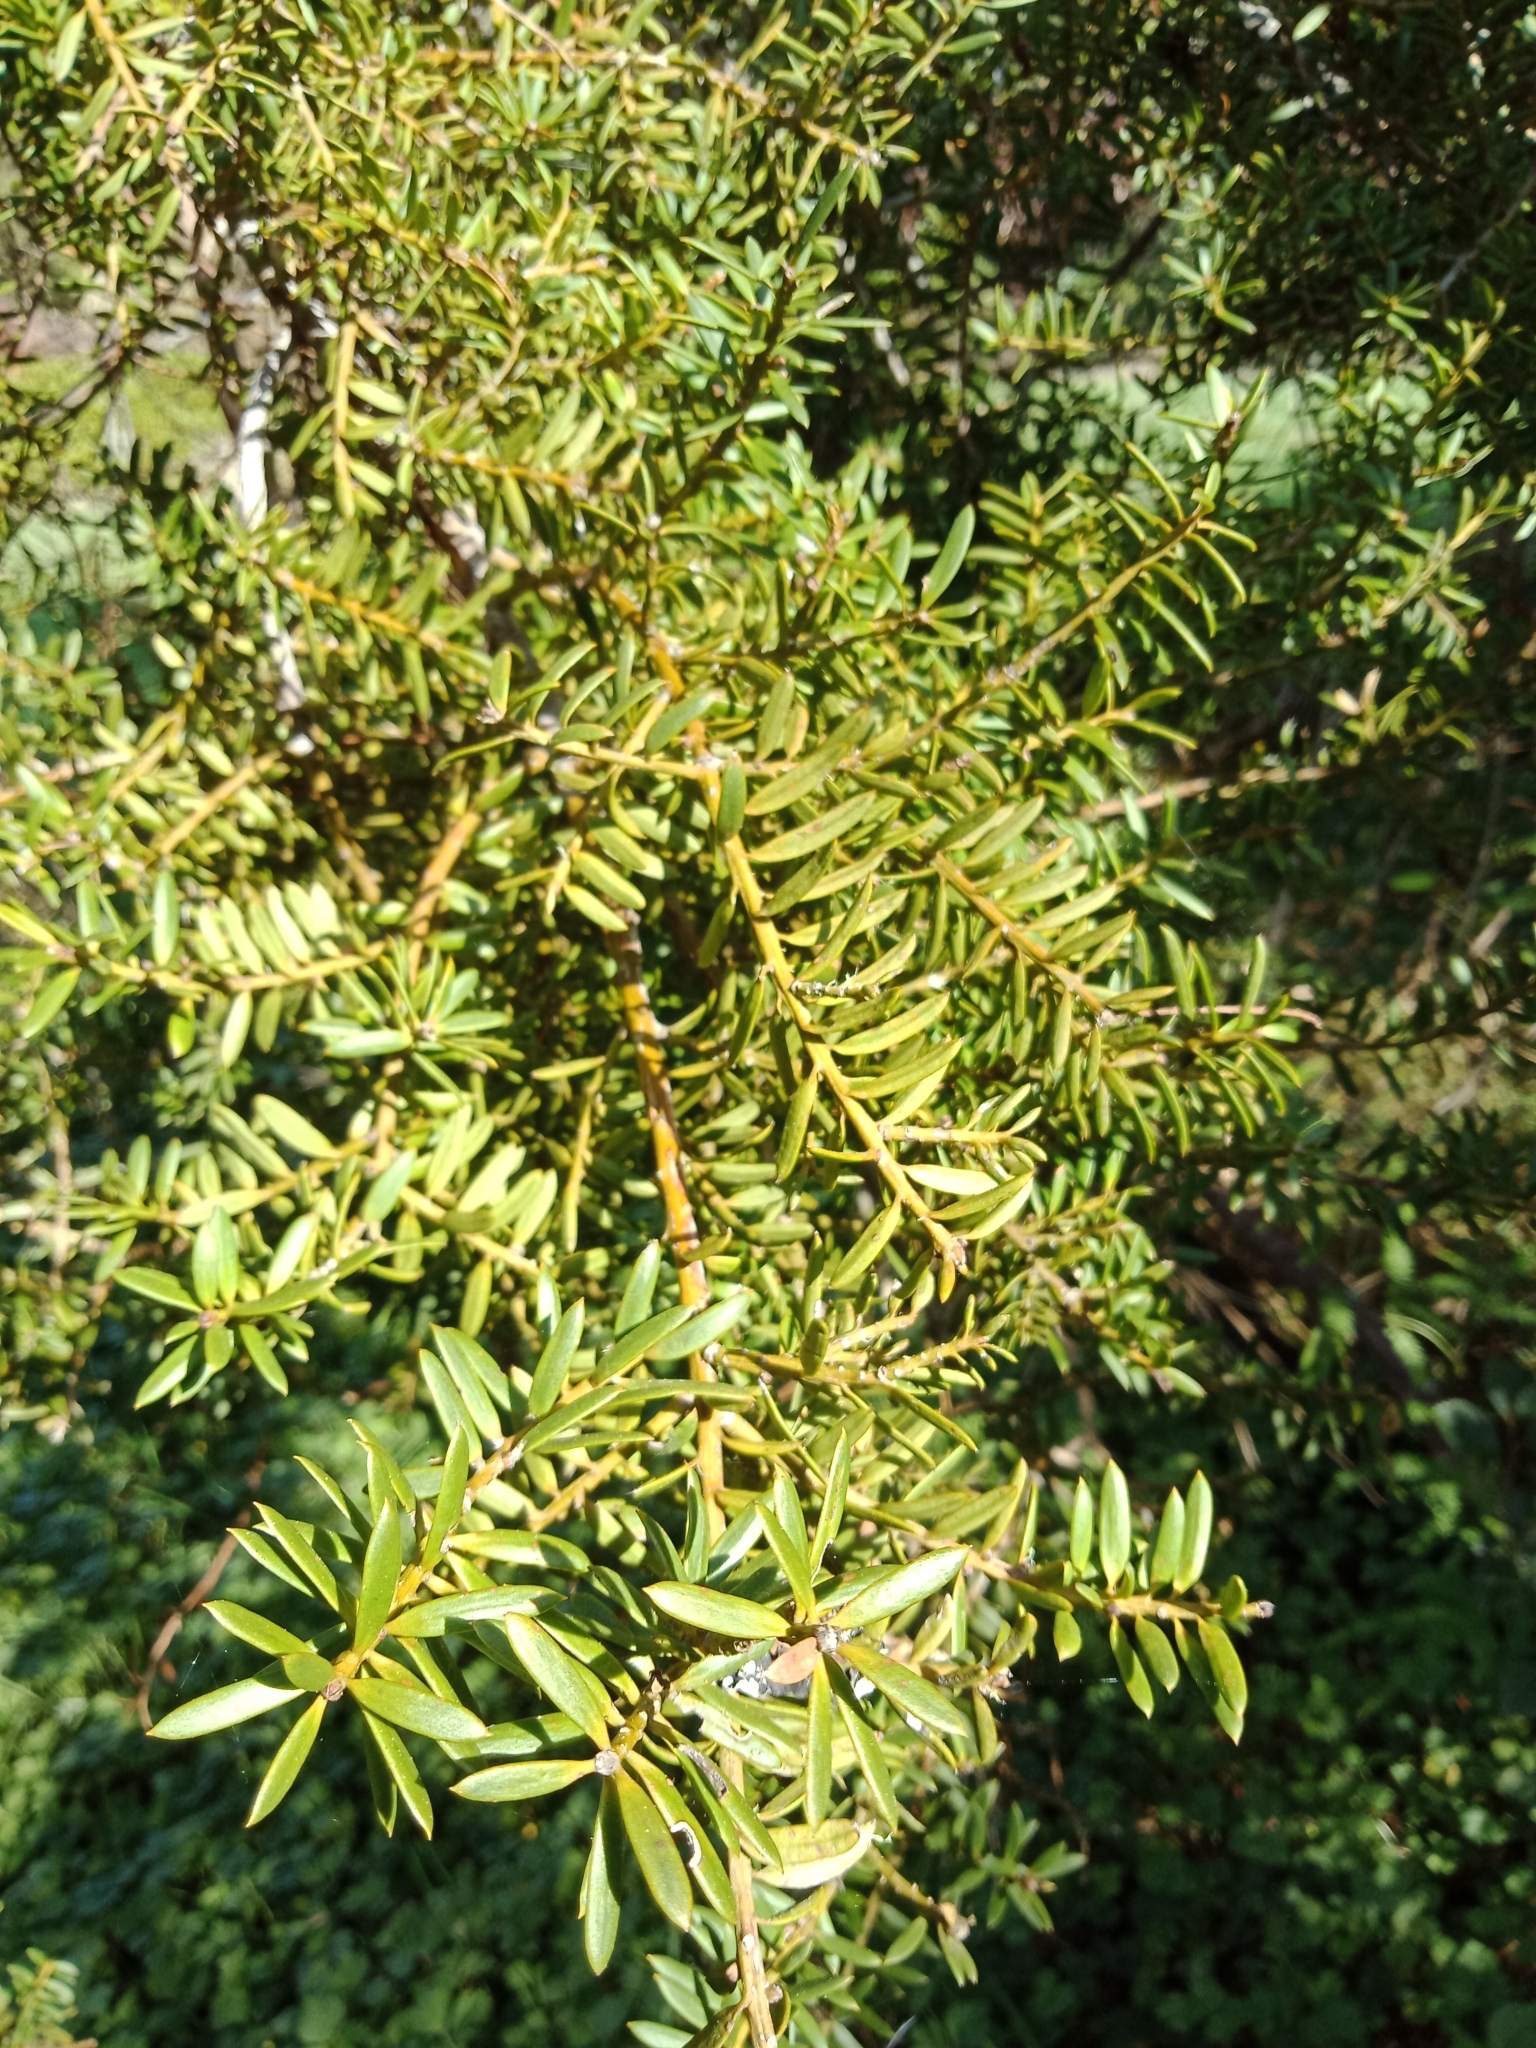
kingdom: Plantae
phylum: Tracheophyta
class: Pinopsida
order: Pinales
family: Podocarpaceae
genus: Podocarpus
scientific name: Podocarpus totara
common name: Totara
